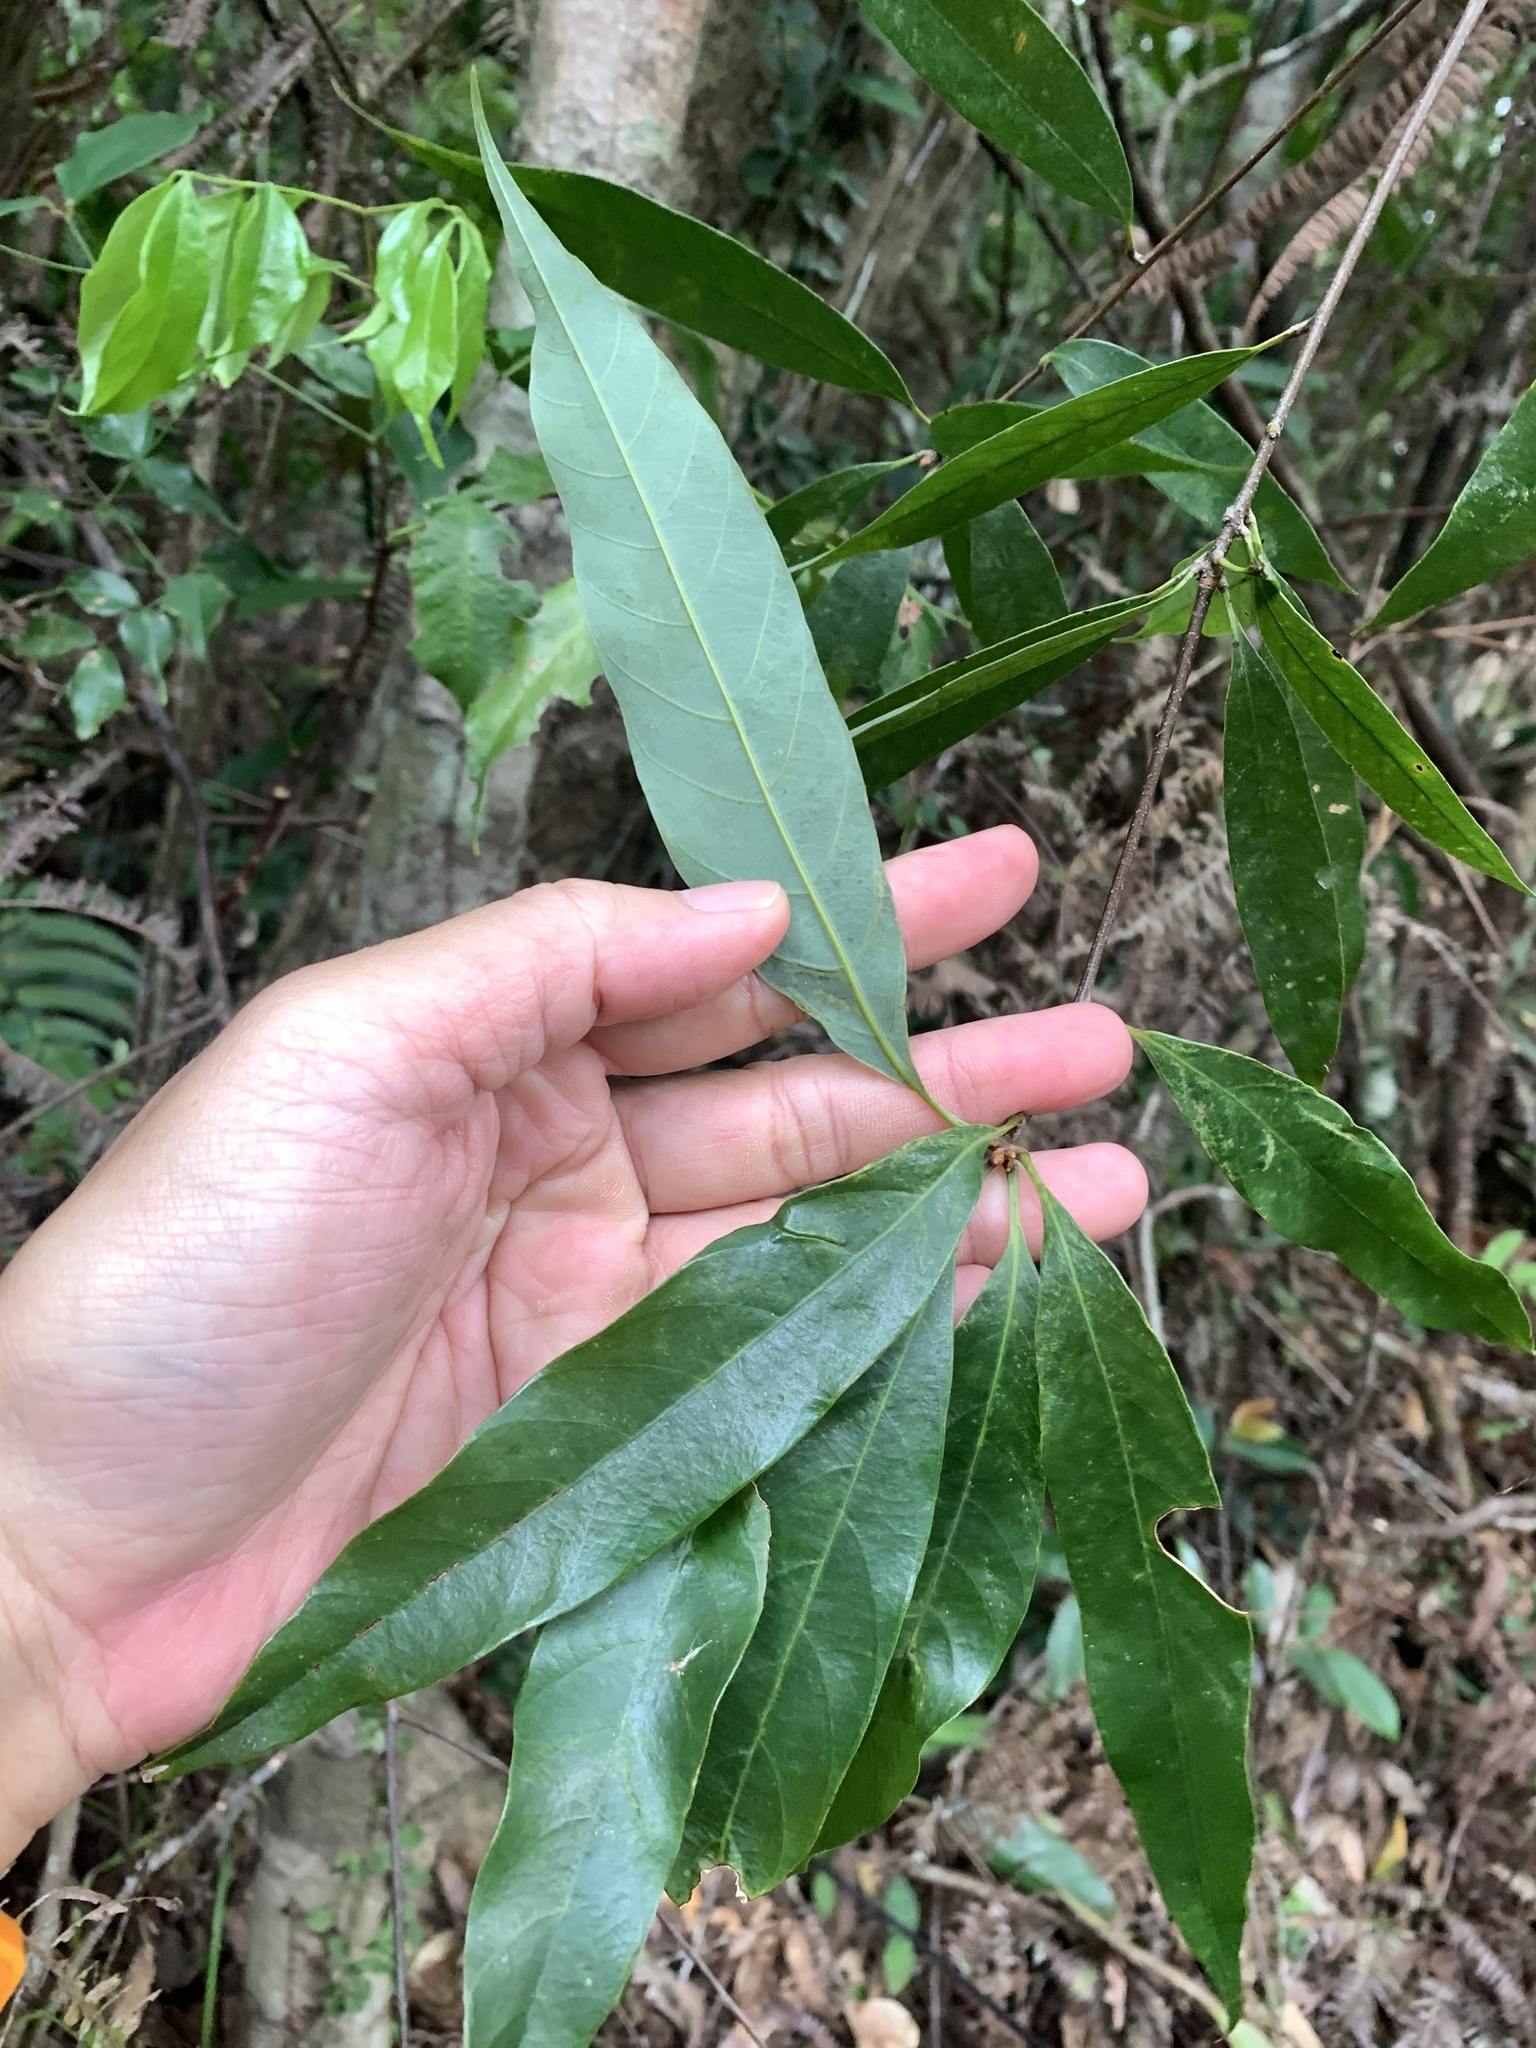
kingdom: Plantae
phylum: Tracheophyta
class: Magnoliopsida
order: Laurales
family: Lauraceae
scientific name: Lauraceae
